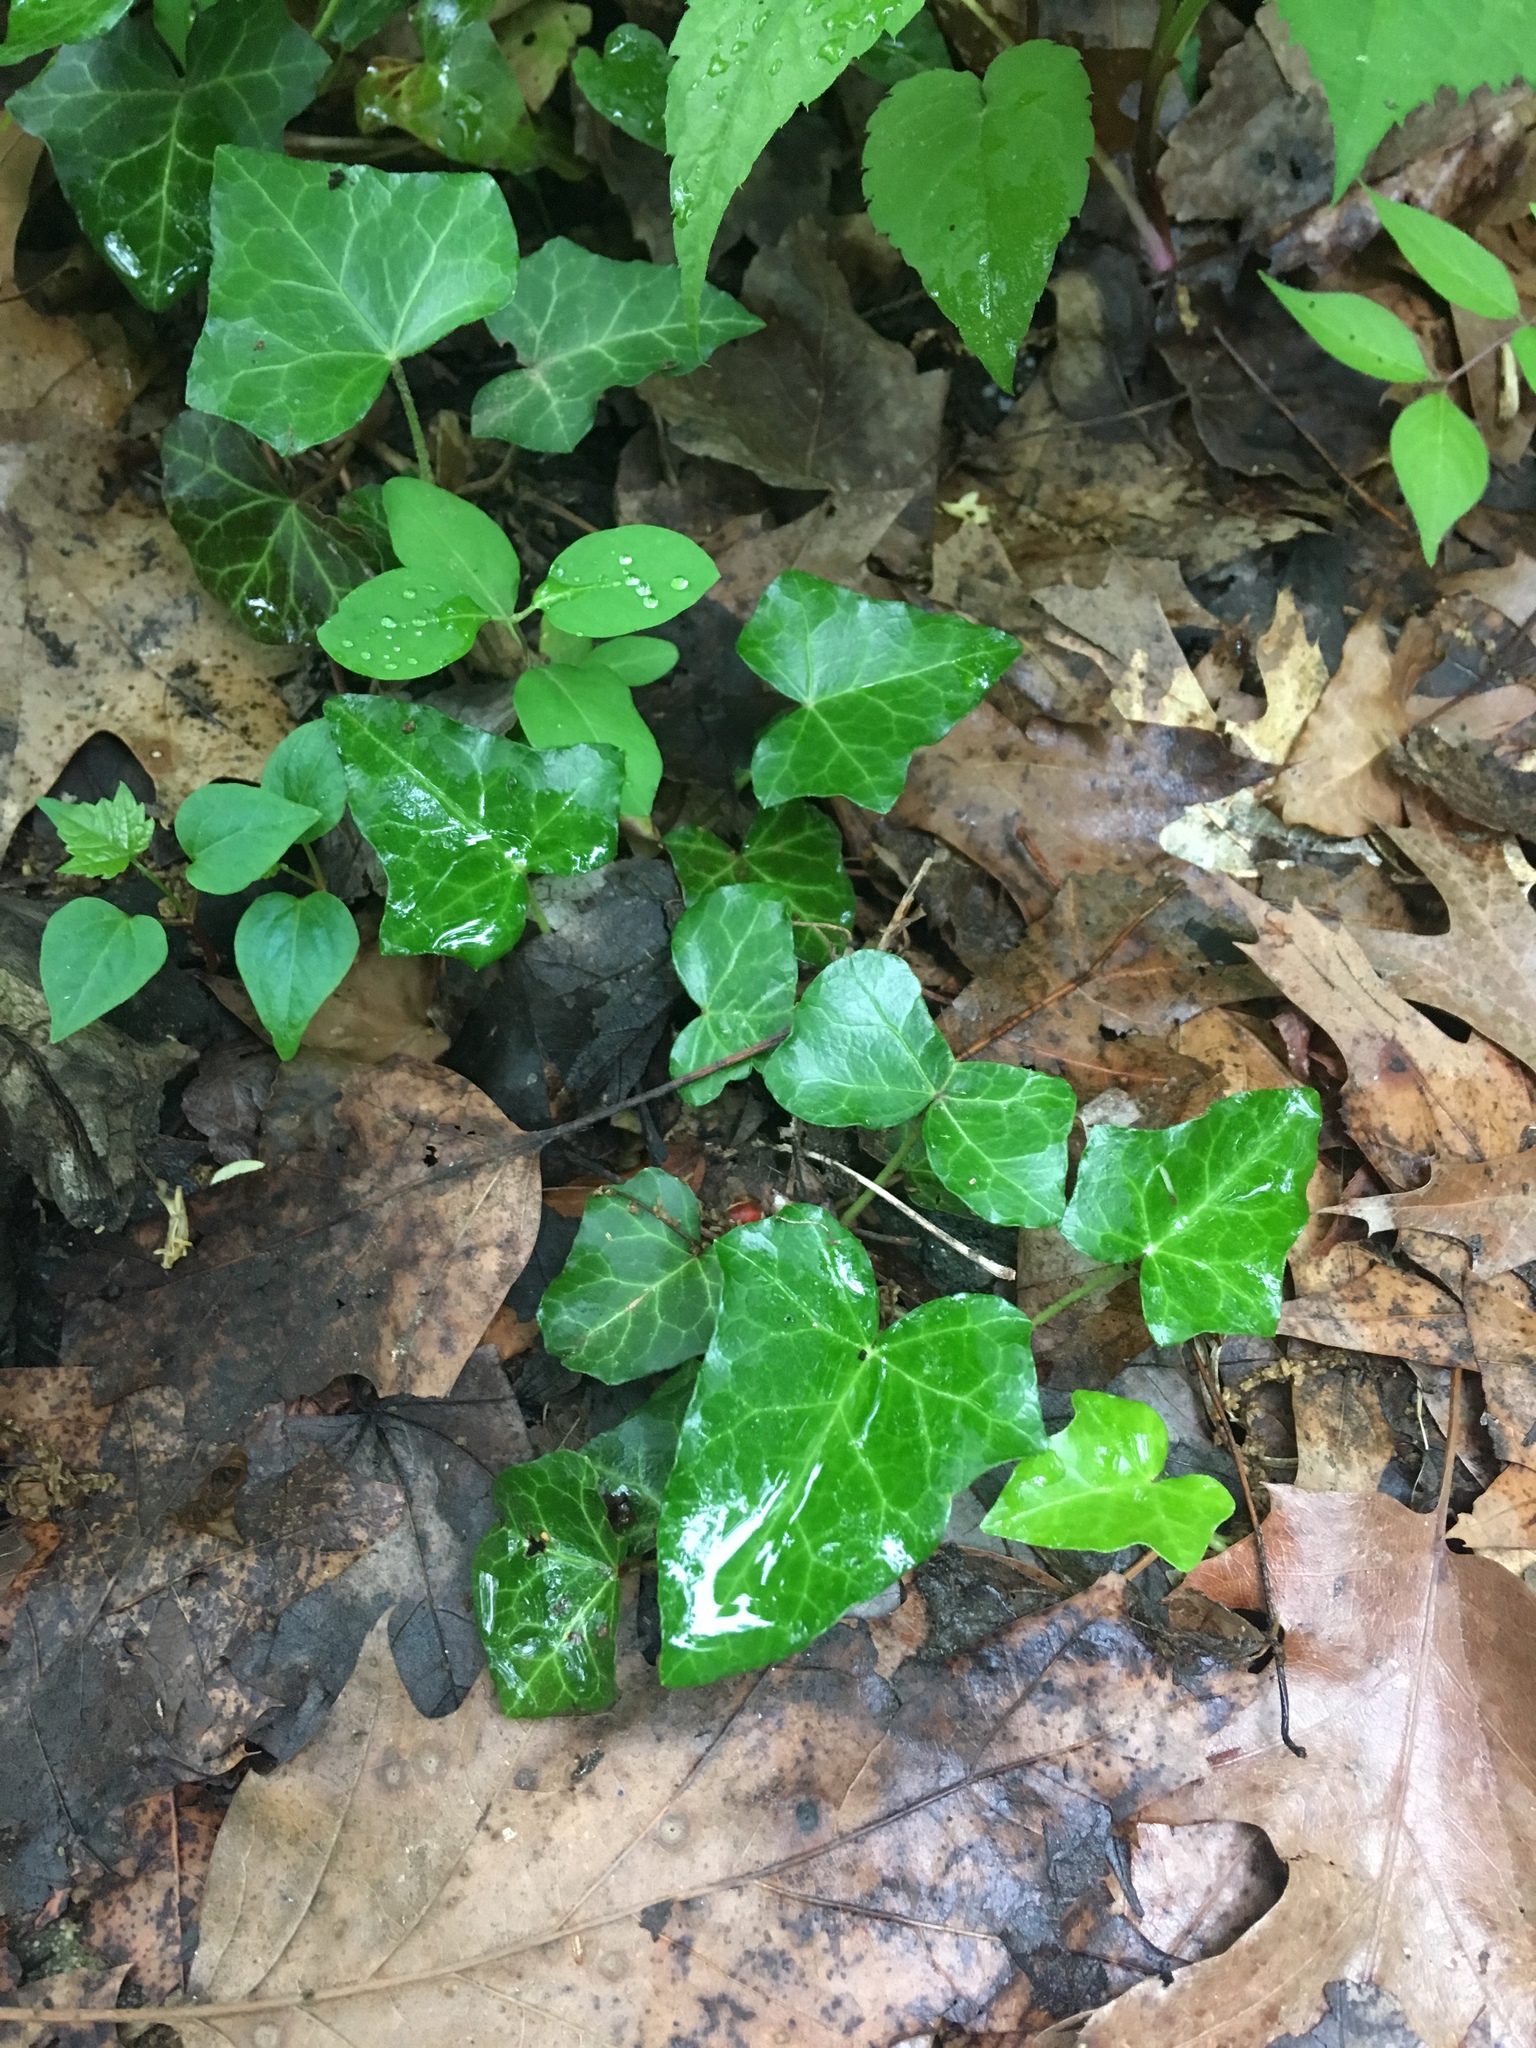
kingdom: Plantae
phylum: Tracheophyta
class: Magnoliopsida
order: Apiales
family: Araliaceae
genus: Hedera
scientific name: Hedera helix
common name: Ivy
